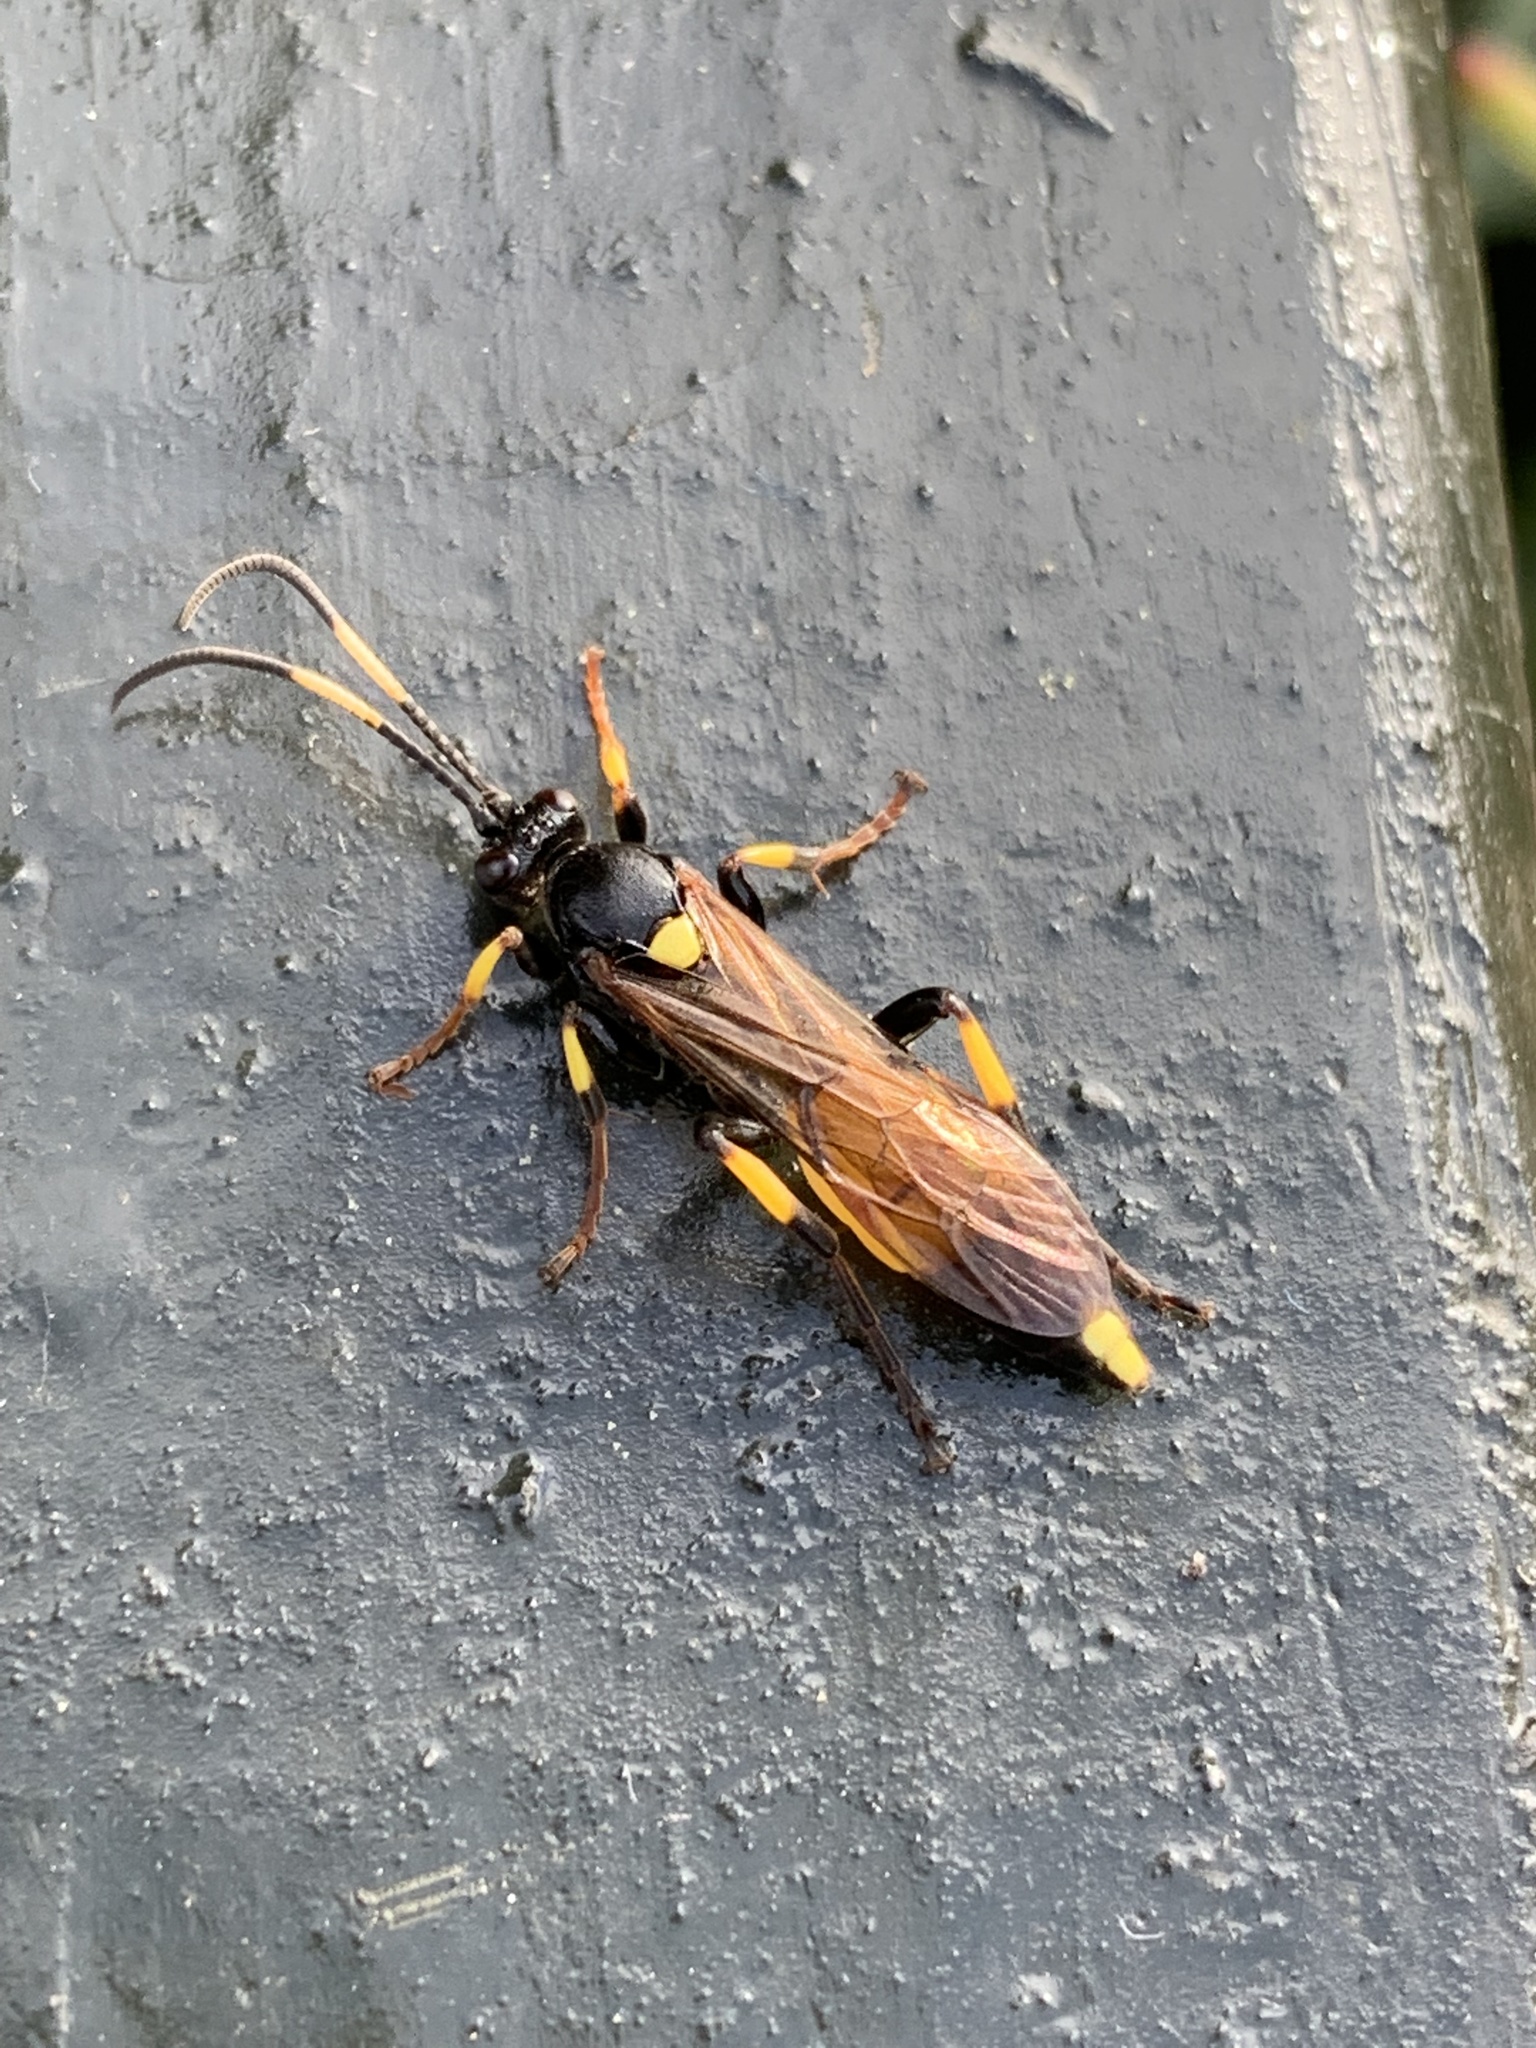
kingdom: Animalia
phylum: Arthropoda
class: Insecta
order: Hymenoptera
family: Ichneumonidae
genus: Ichneumon
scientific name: Ichneumon stramentor
